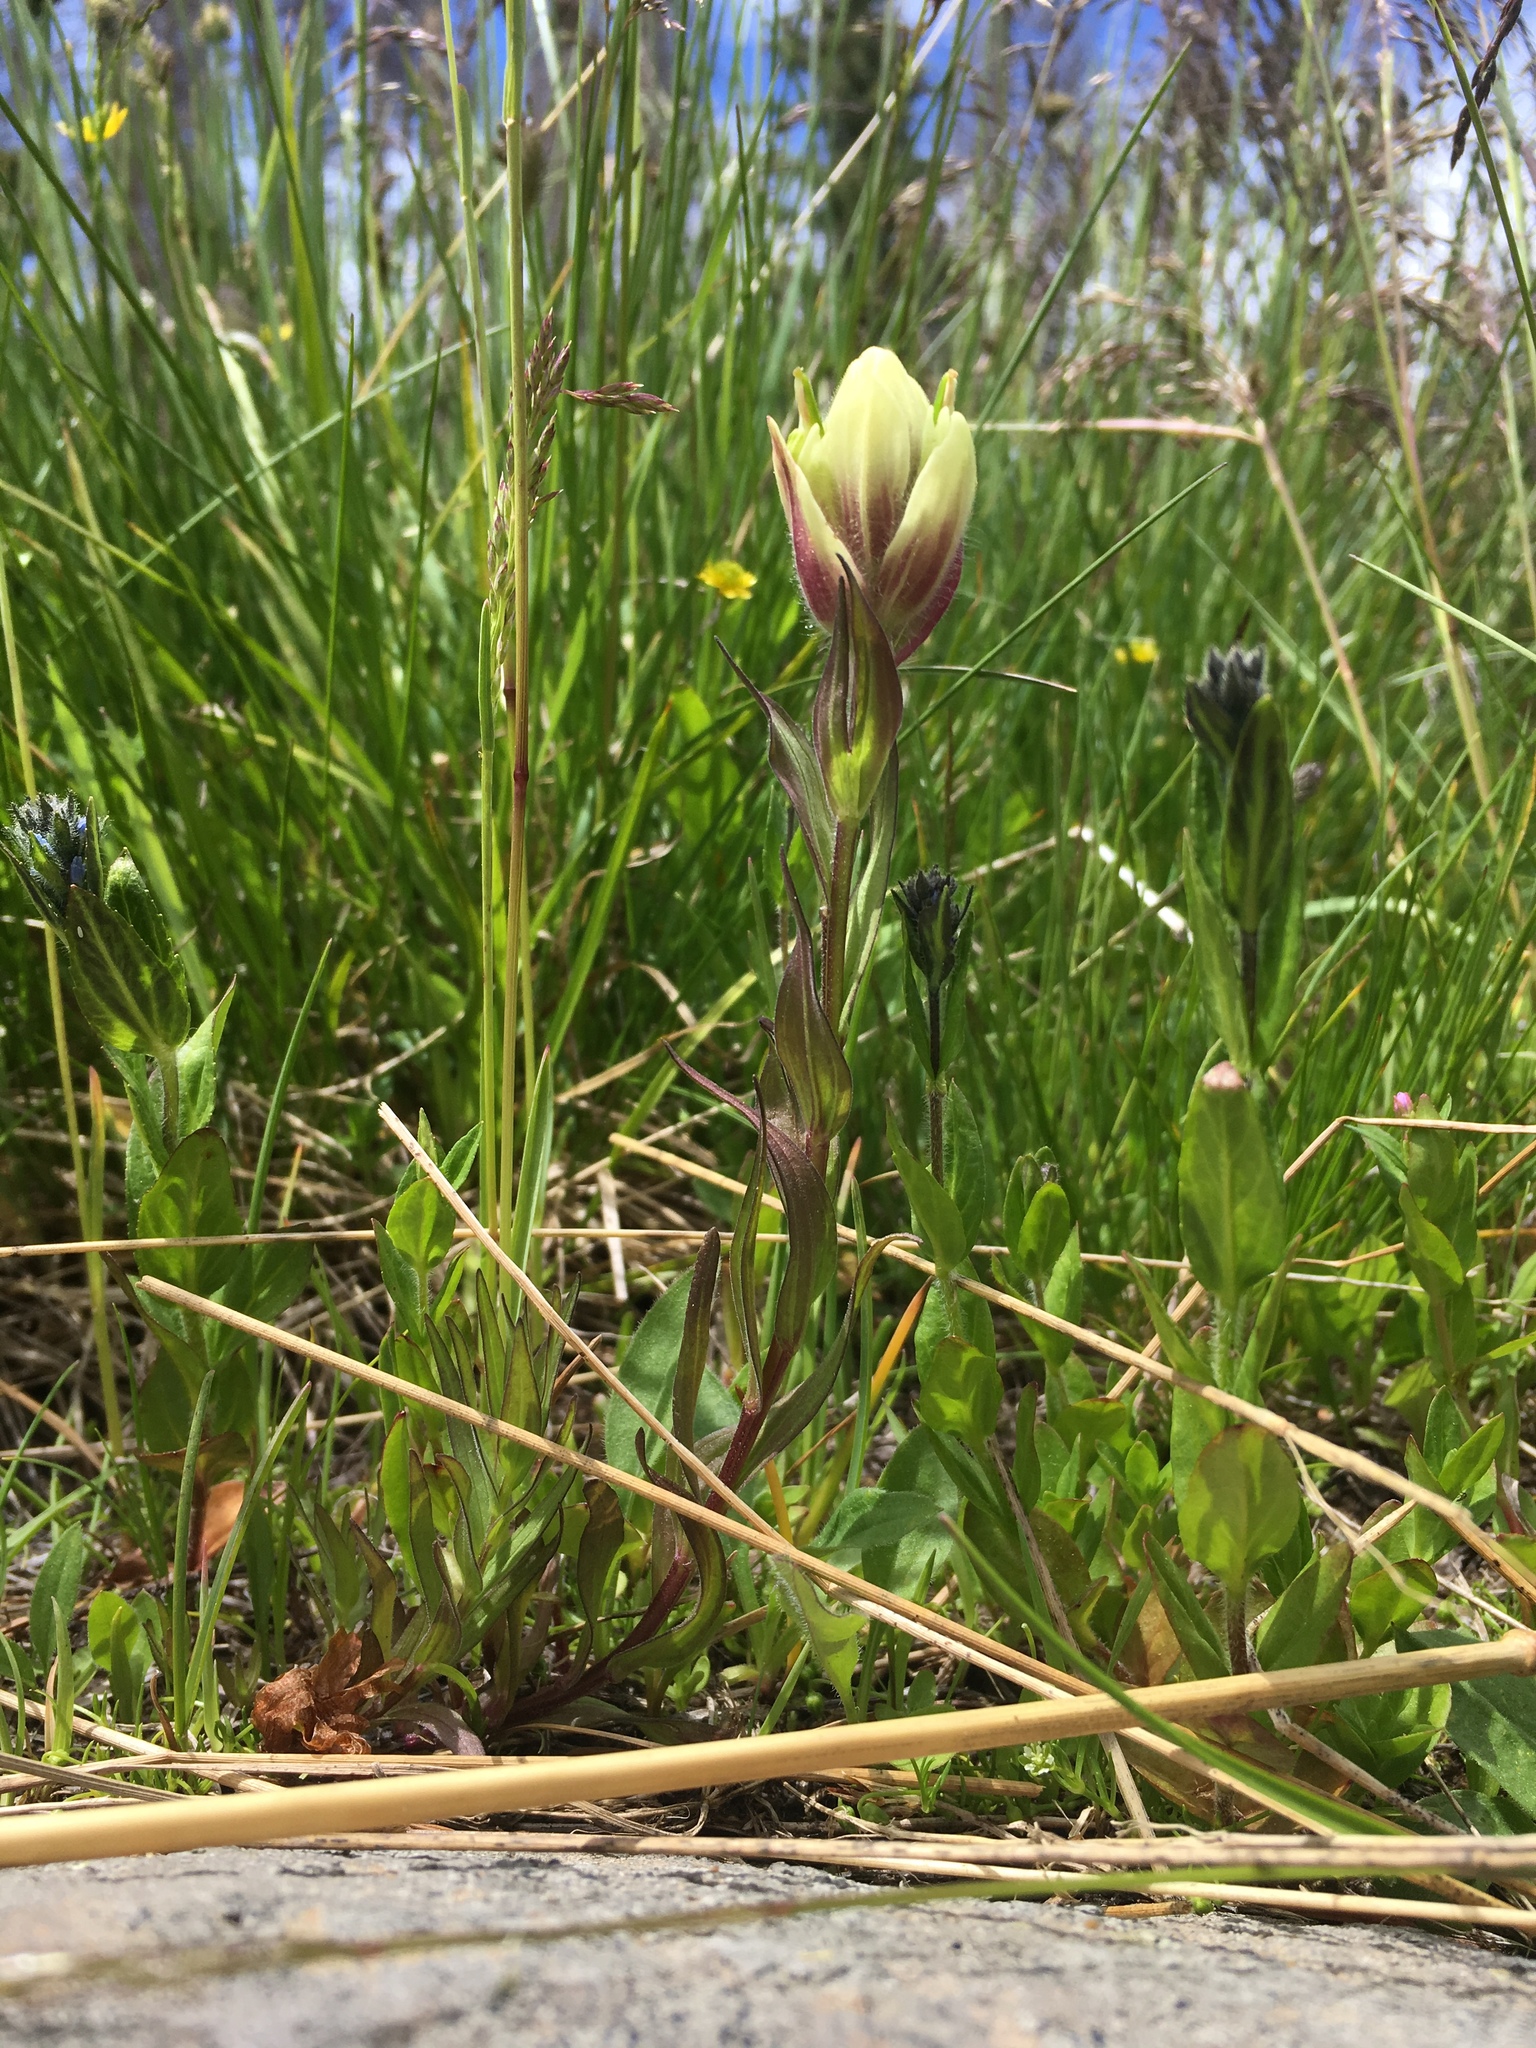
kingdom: Plantae
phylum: Tracheophyta
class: Magnoliopsida
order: Lamiales
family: Orobanchaceae
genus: Castilleja
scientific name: Castilleja septentrionalis
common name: Northeastern paintbrush
